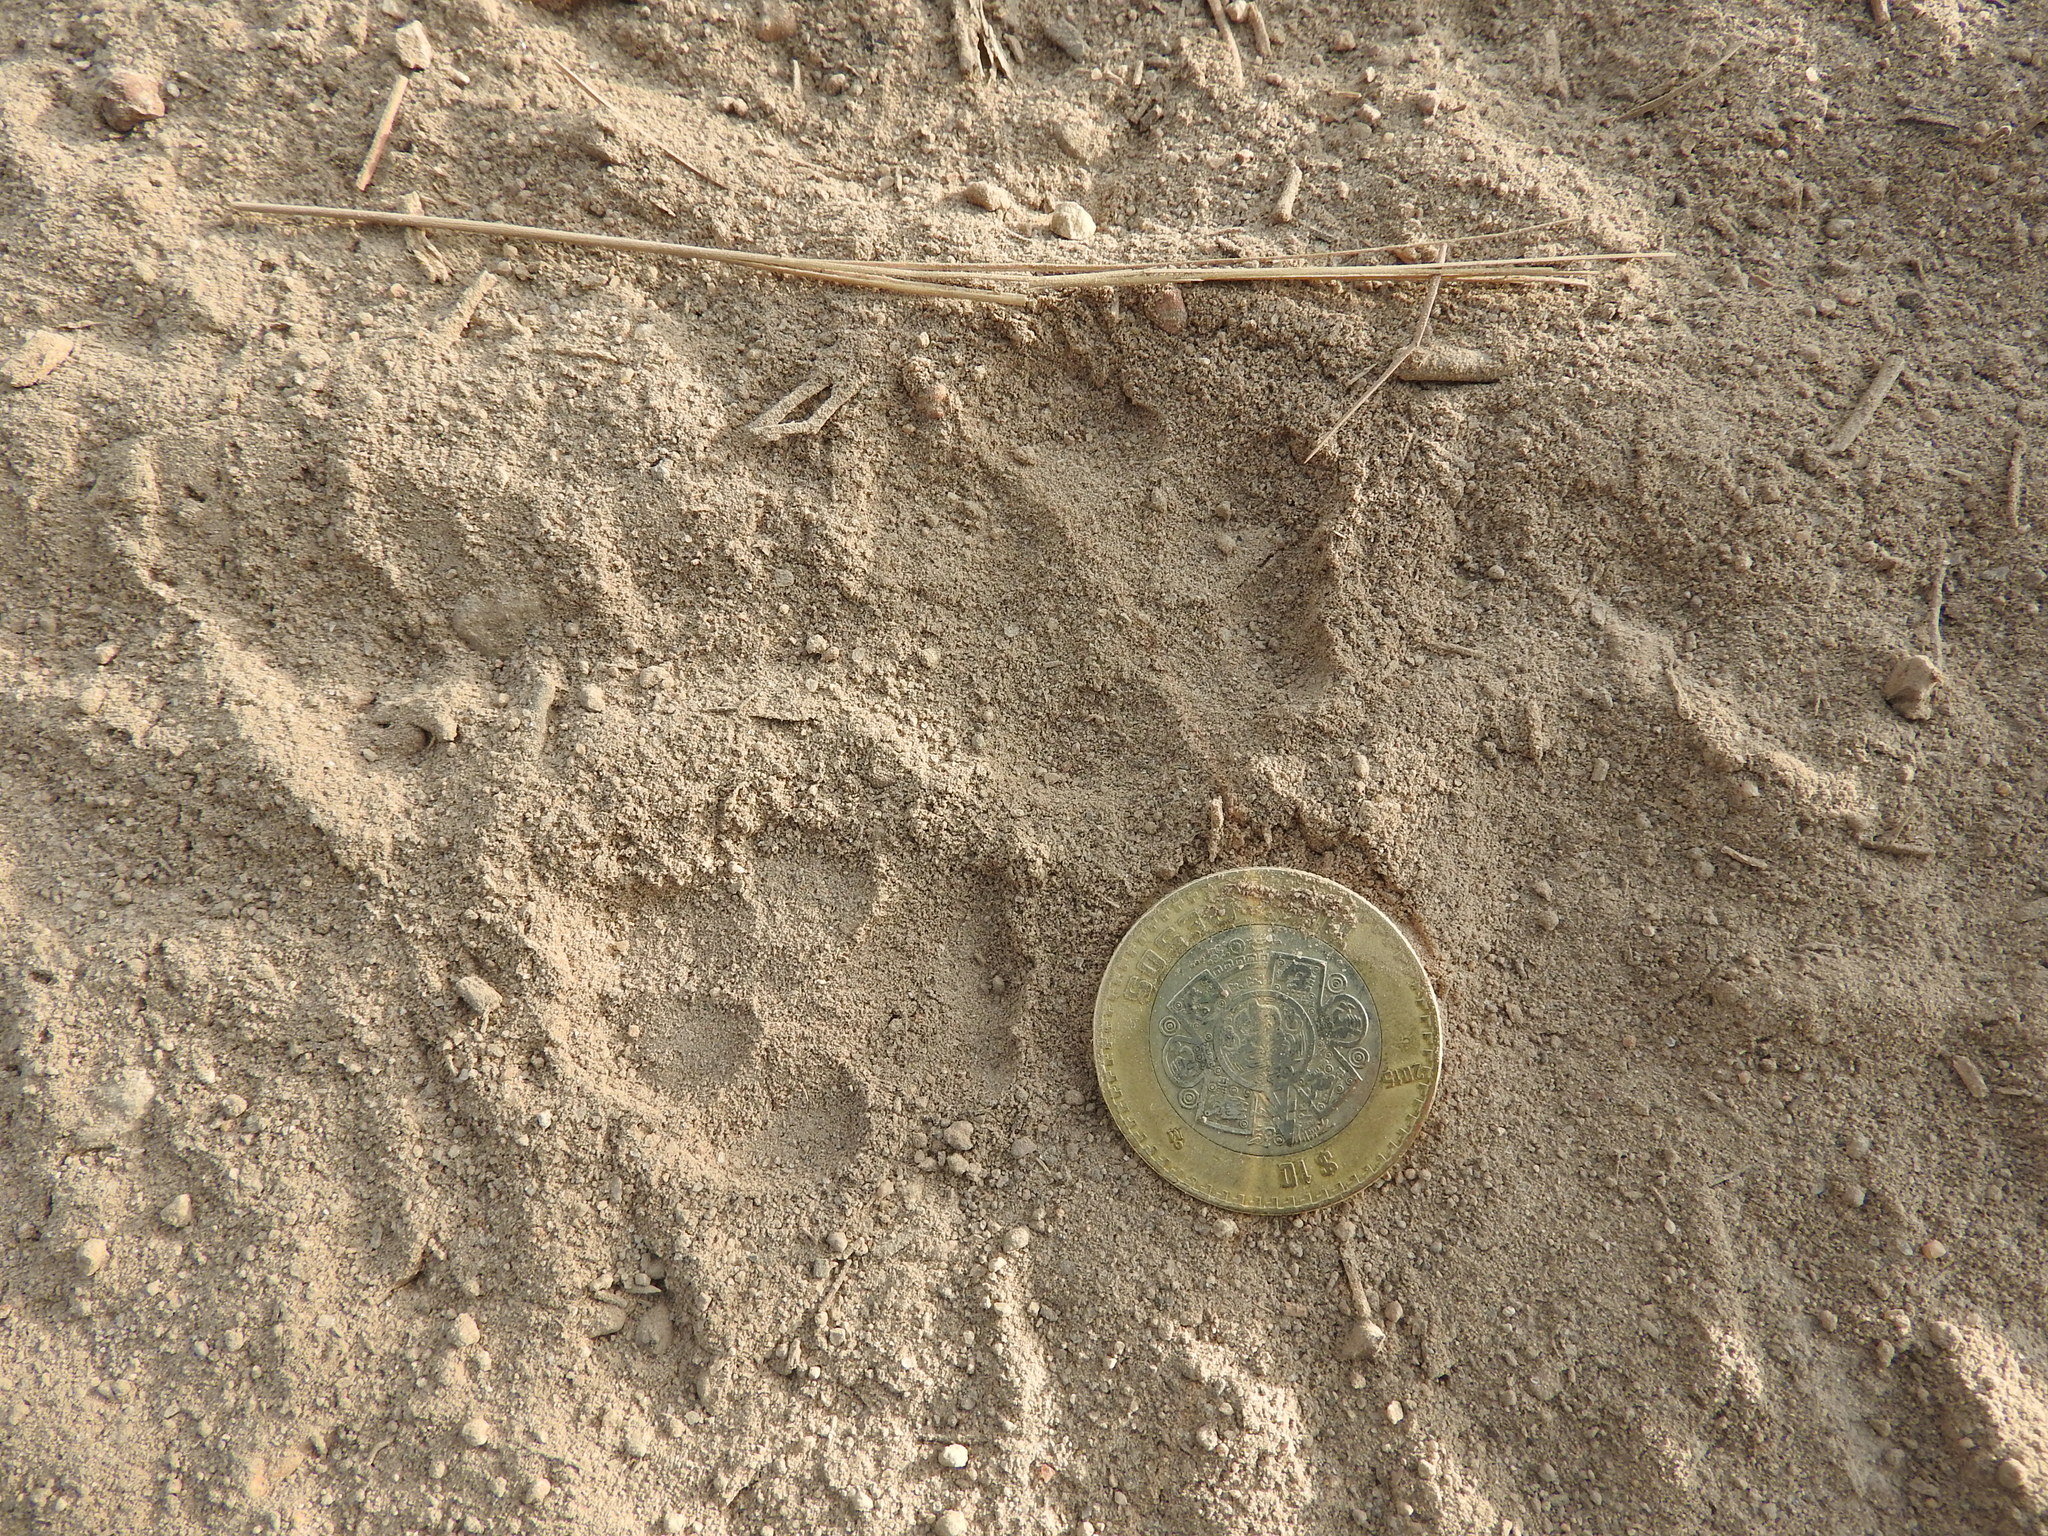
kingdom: Animalia
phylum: Chordata
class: Mammalia
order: Carnivora
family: Canidae
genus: Urocyon
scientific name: Urocyon cinereoargenteus
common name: Gray fox
